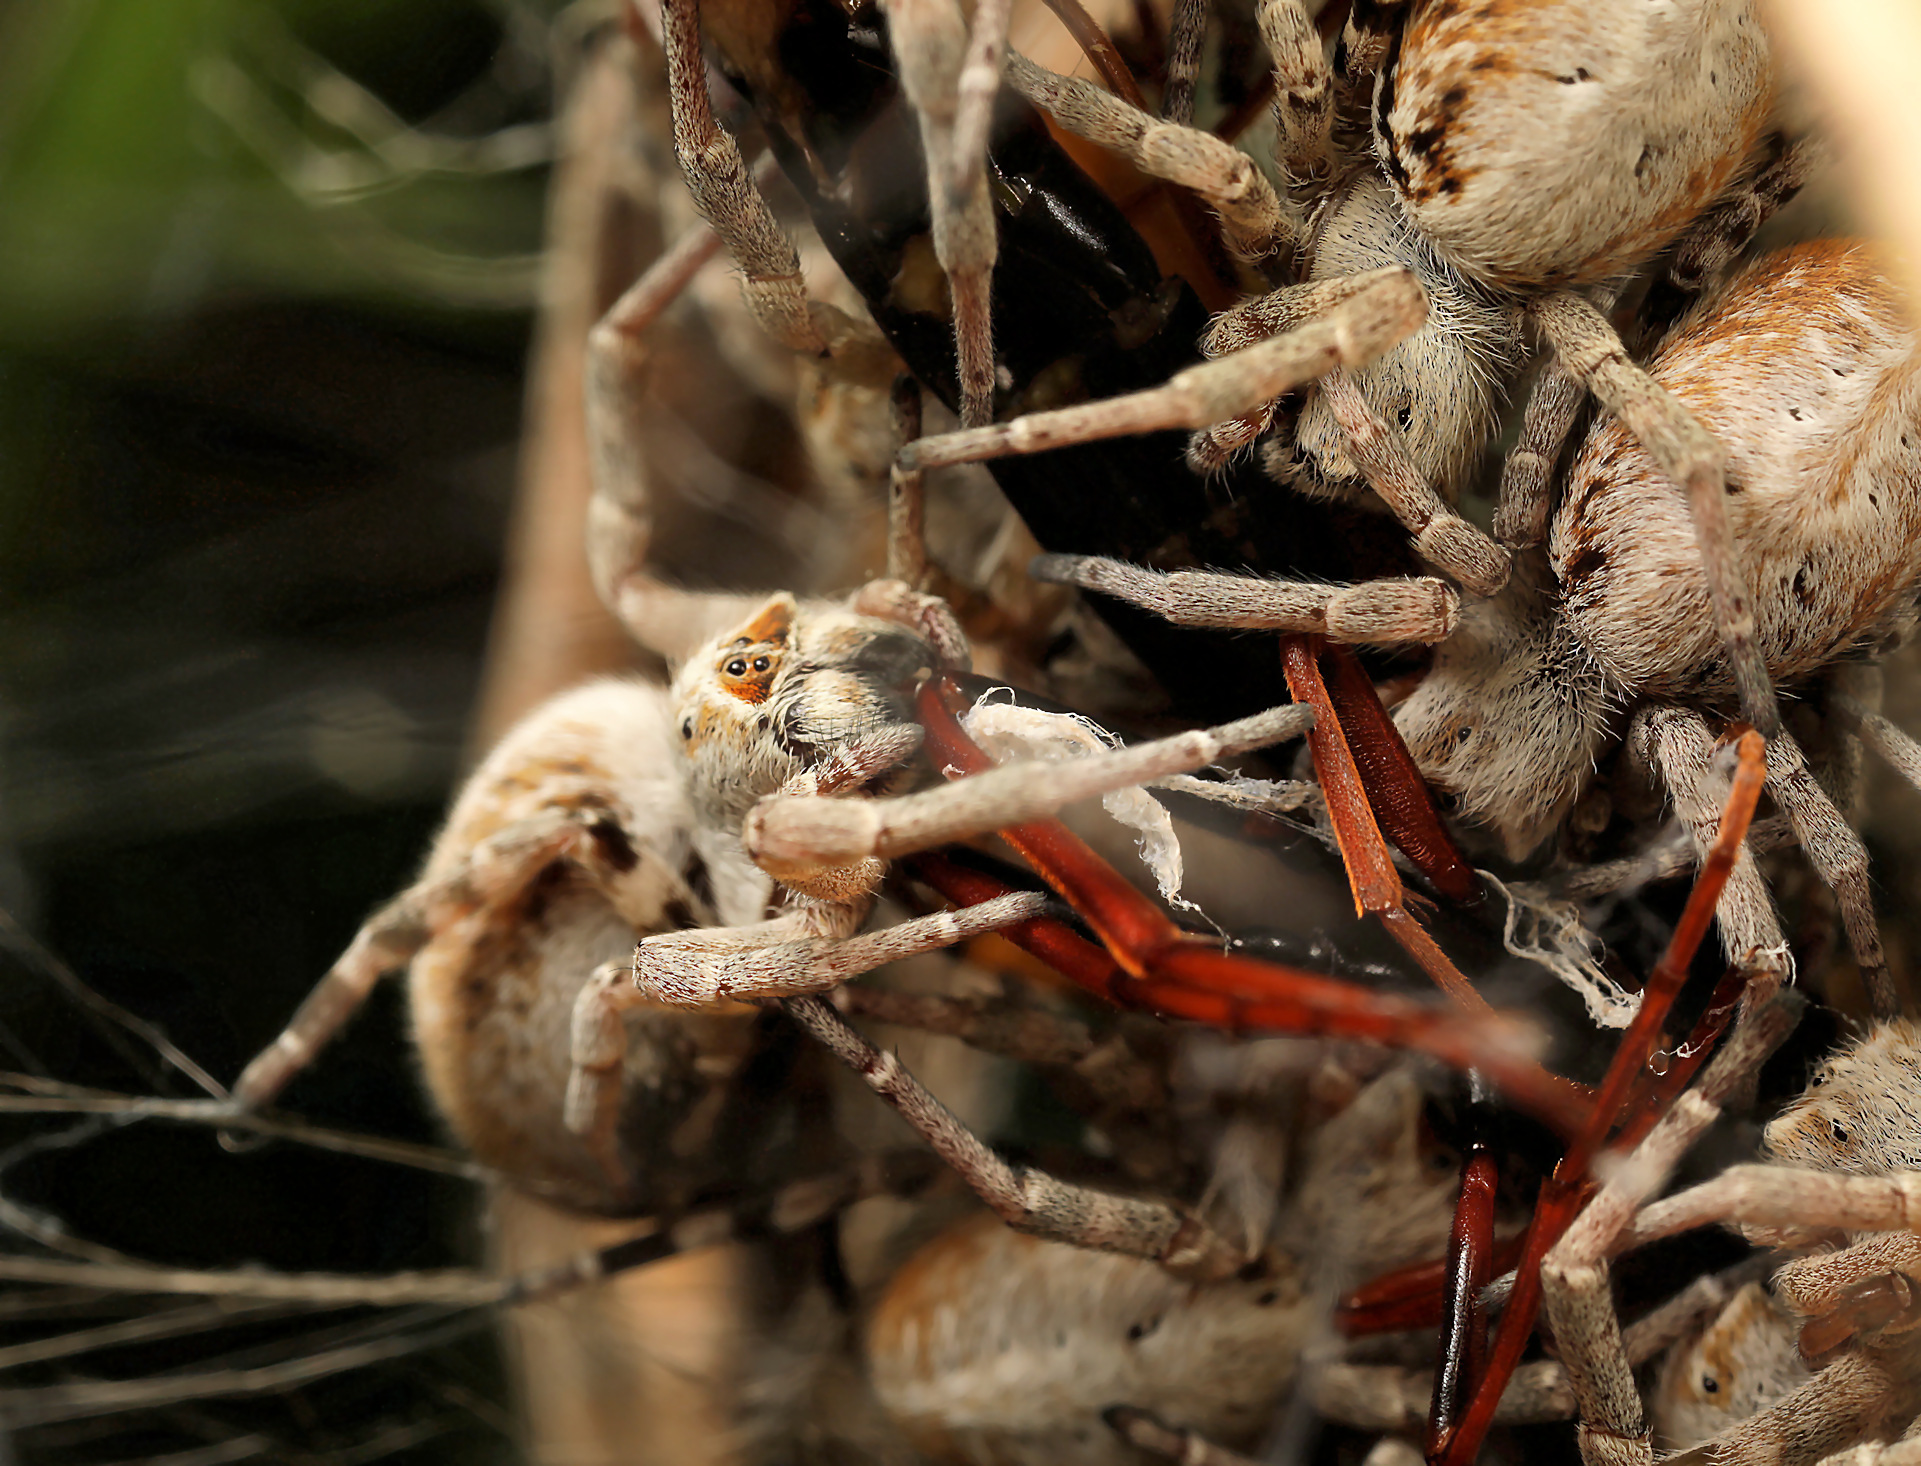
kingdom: Animalia
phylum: Arthropoda
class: Arachnida
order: Araneae
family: Eresidae
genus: Stegodyphus
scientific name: Stegodyphus dumicola
